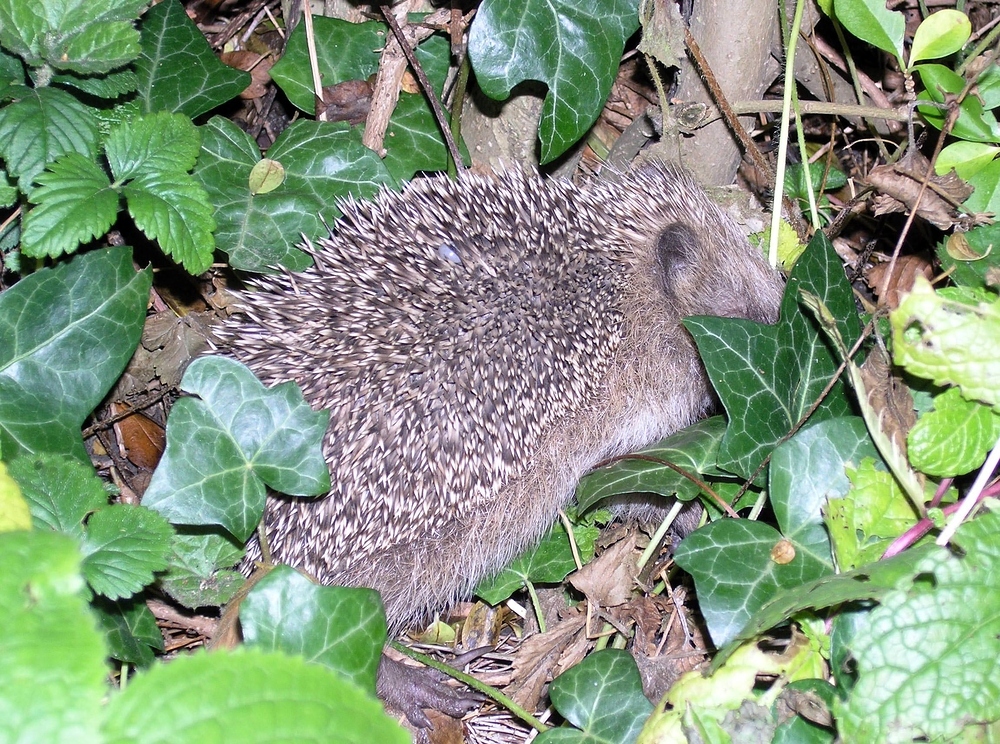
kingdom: Animalia
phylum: Chordata
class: Mammalia
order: Erinaceomorpha
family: Erinaceidae
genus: Erinaceus
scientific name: Erinaceus europaeus
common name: West european hedgehog
